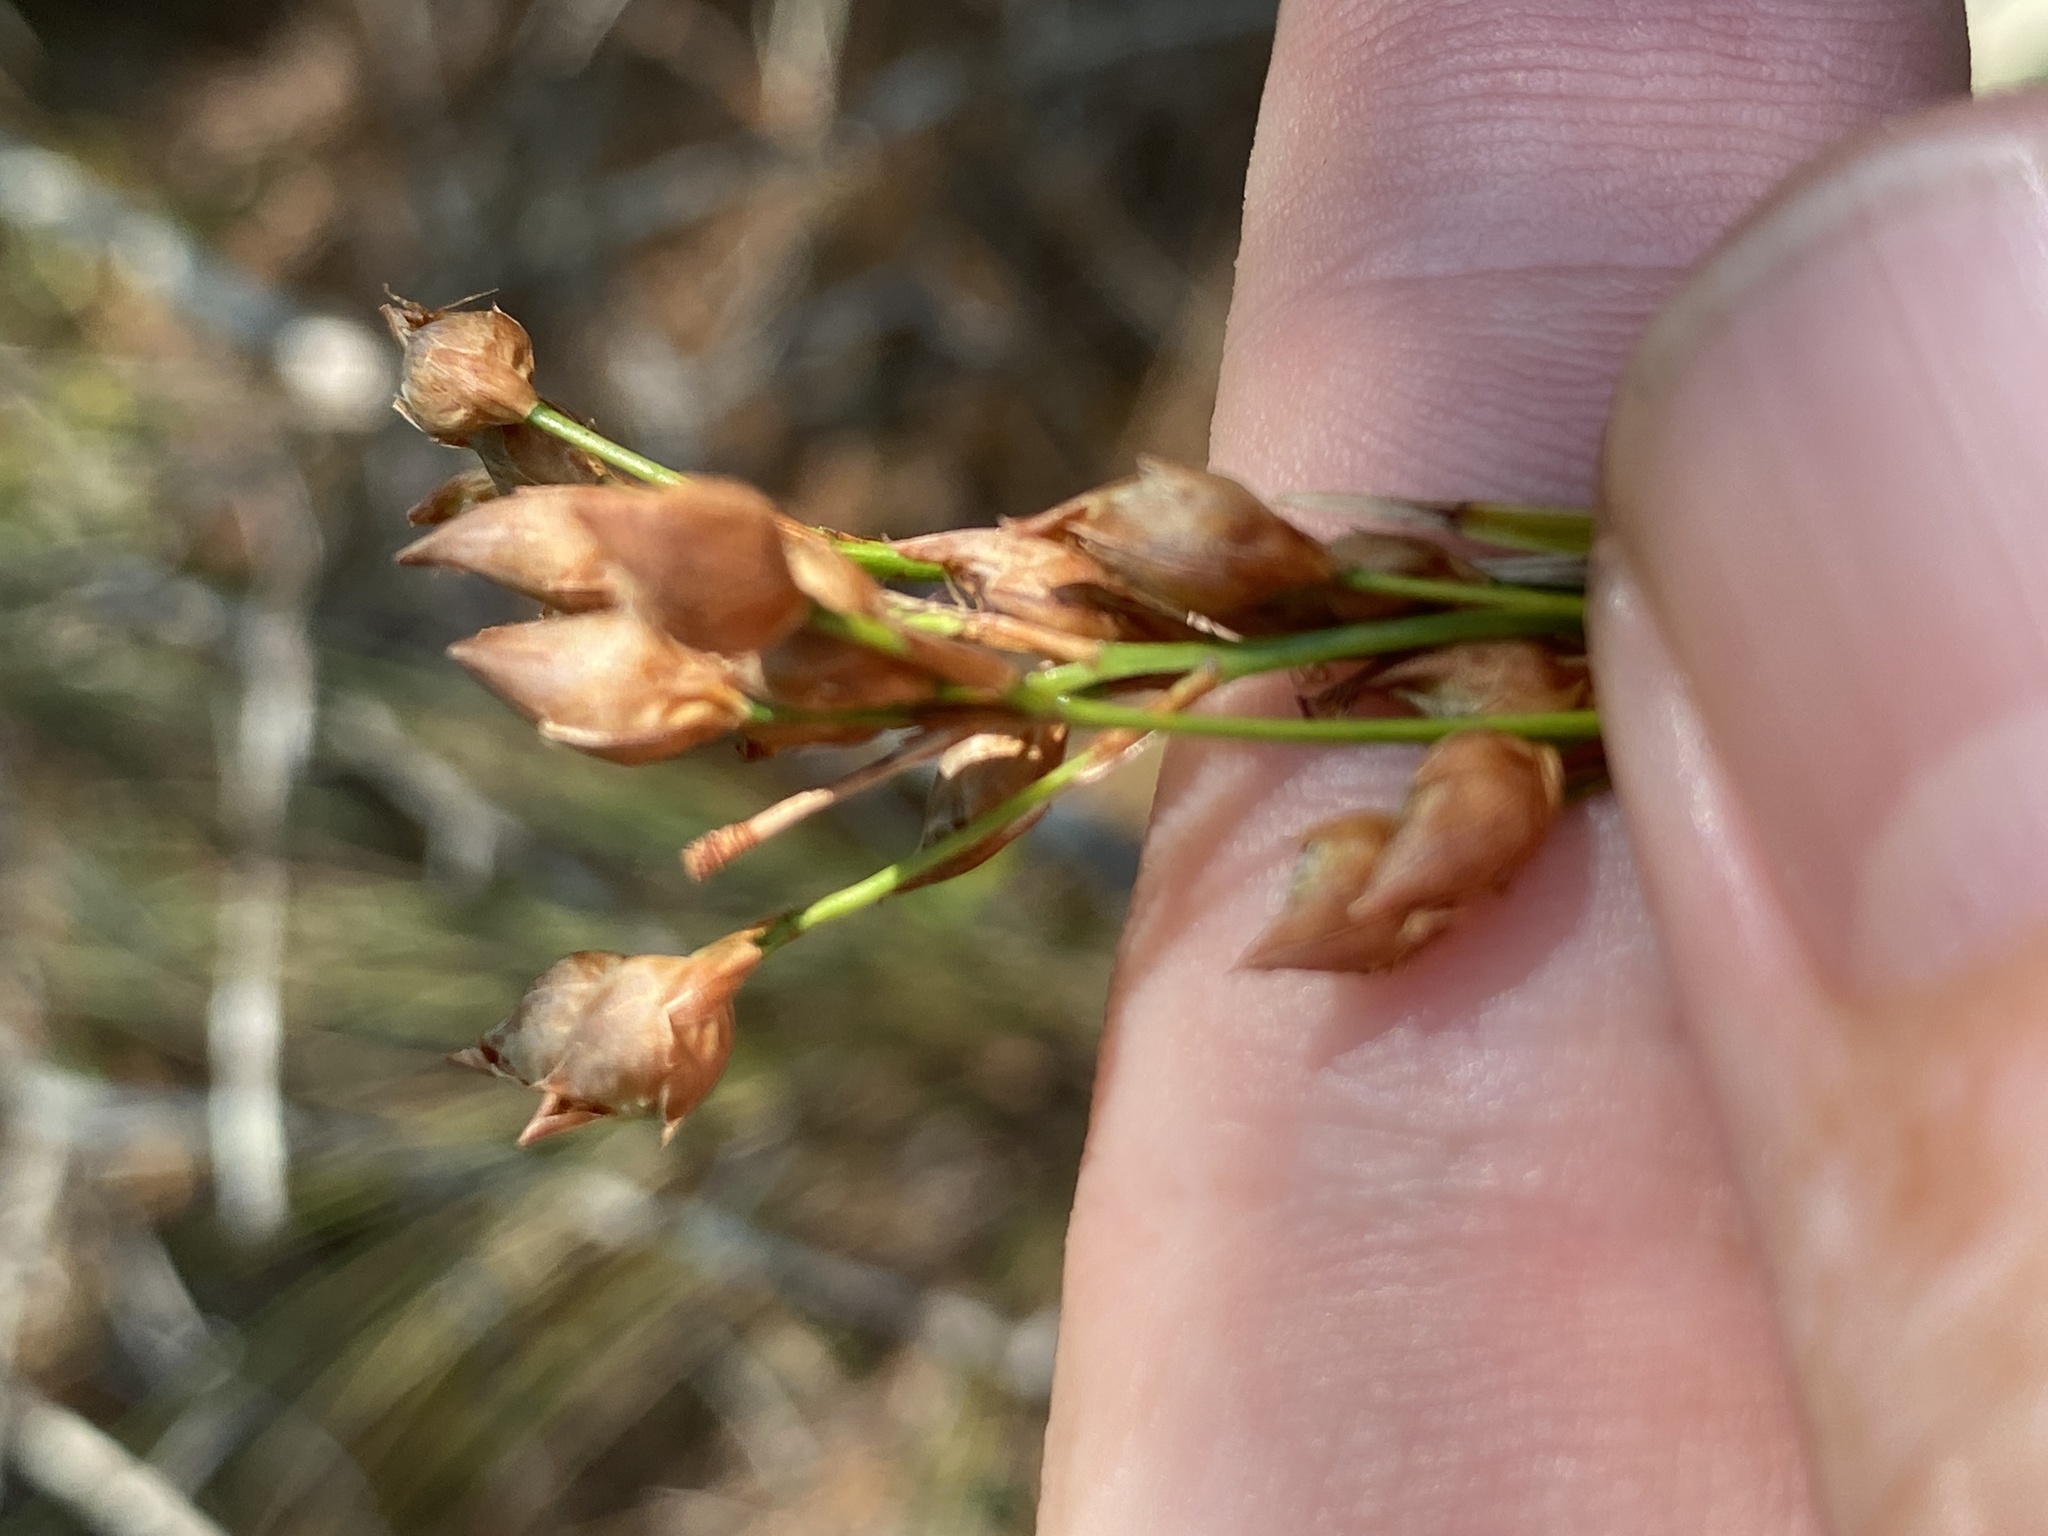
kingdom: Plantae
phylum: Tracheophyta
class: Liliopsida
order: Poales
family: Cyperaceae
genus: Rhynchospora
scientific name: Rhynchospora megalocarpa
